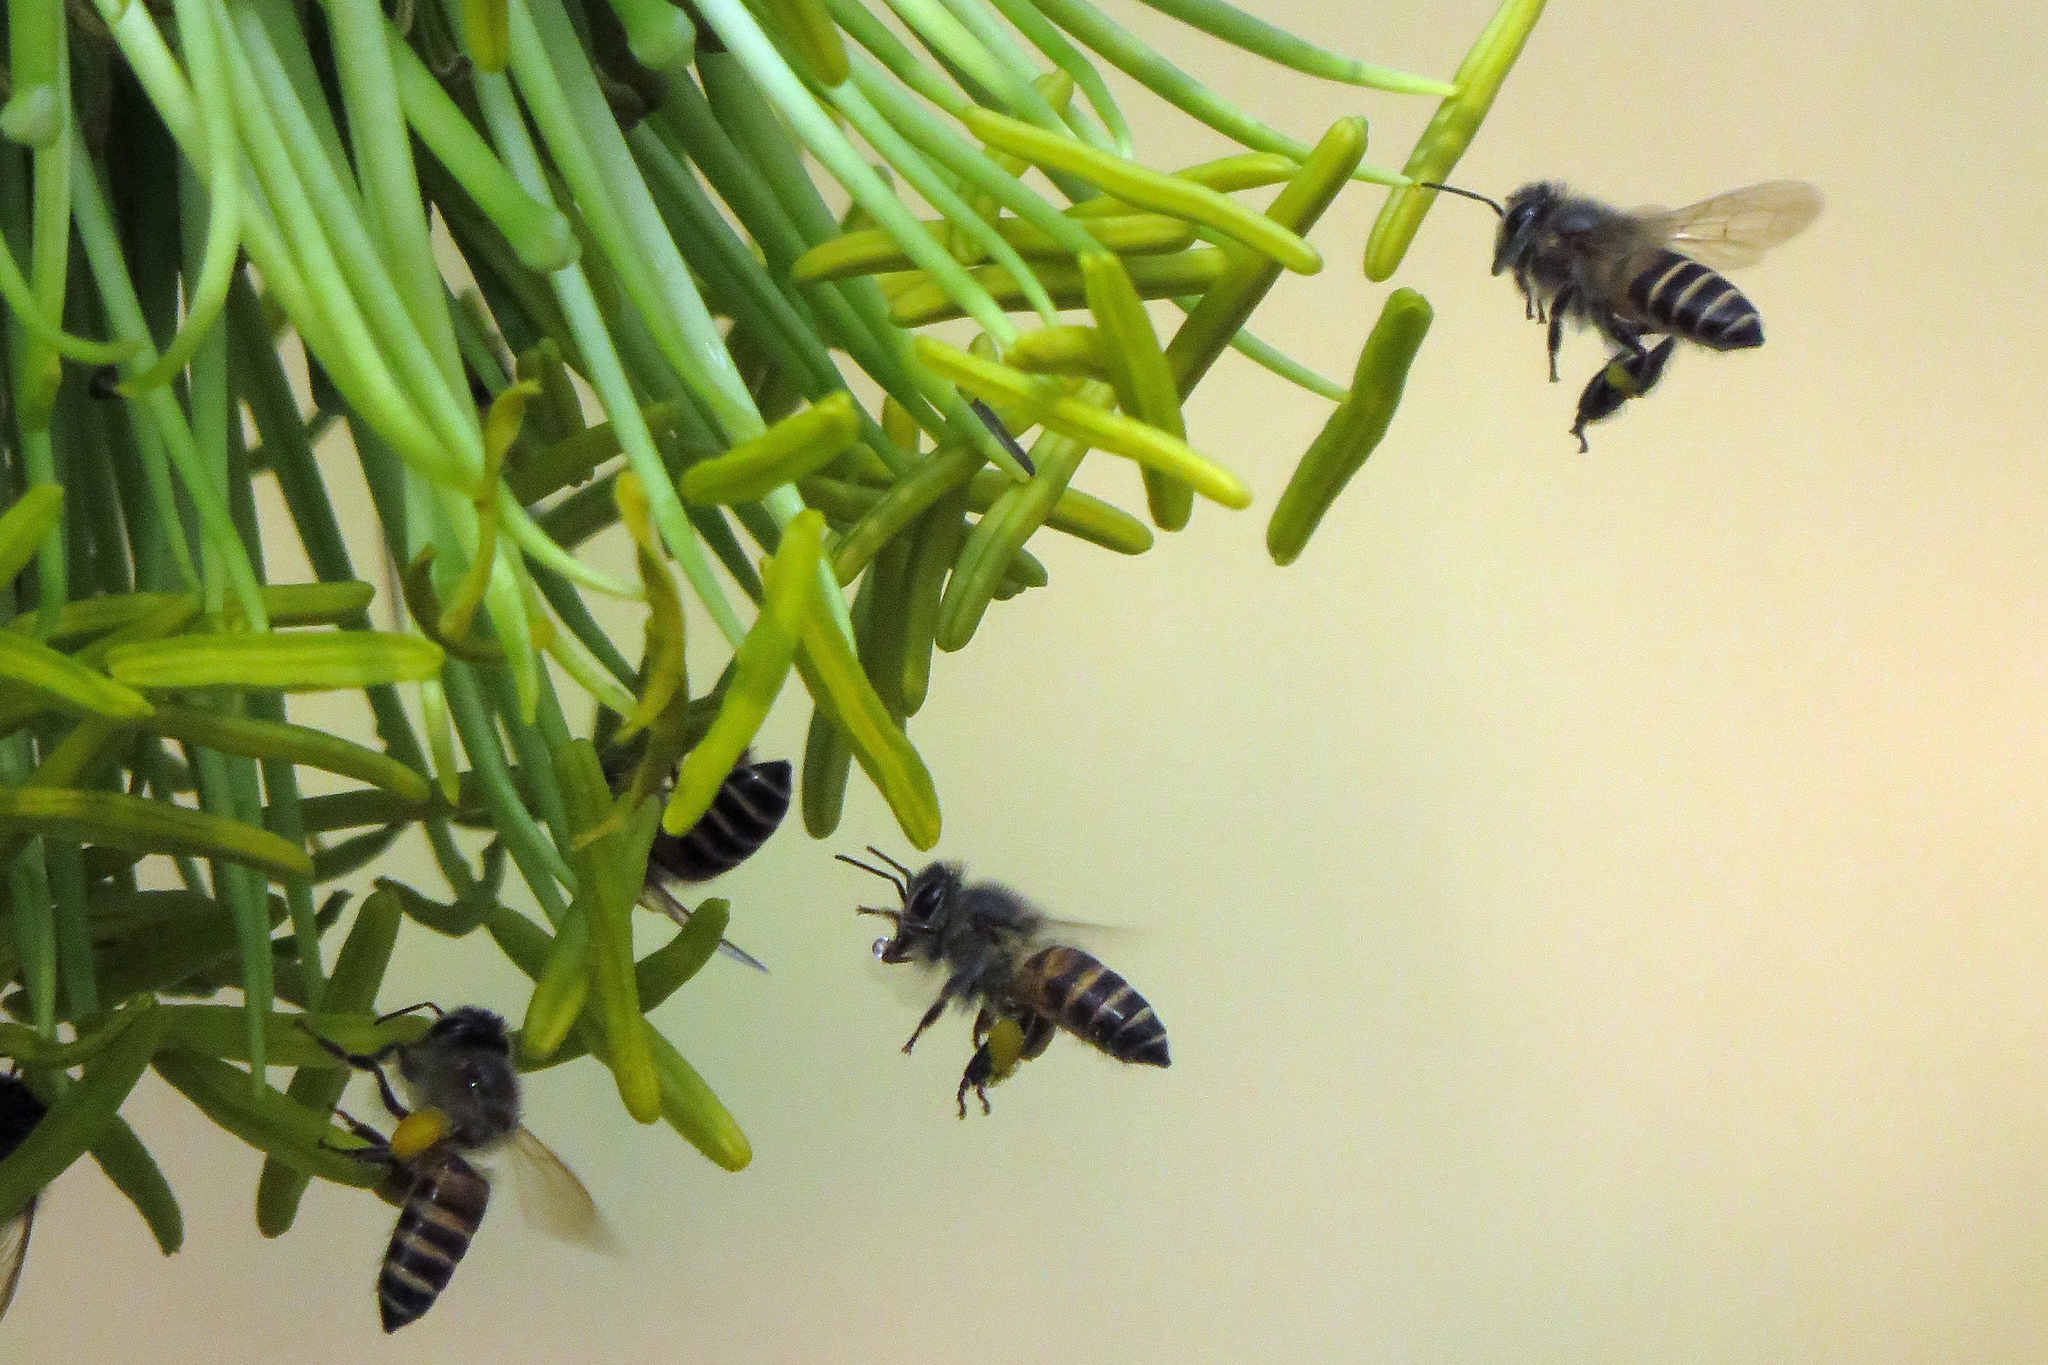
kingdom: Animalia
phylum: Arthropoda
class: Insecta
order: Hymenoptera
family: Apidae
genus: Apis
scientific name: Apis cerana
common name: Honey bee
